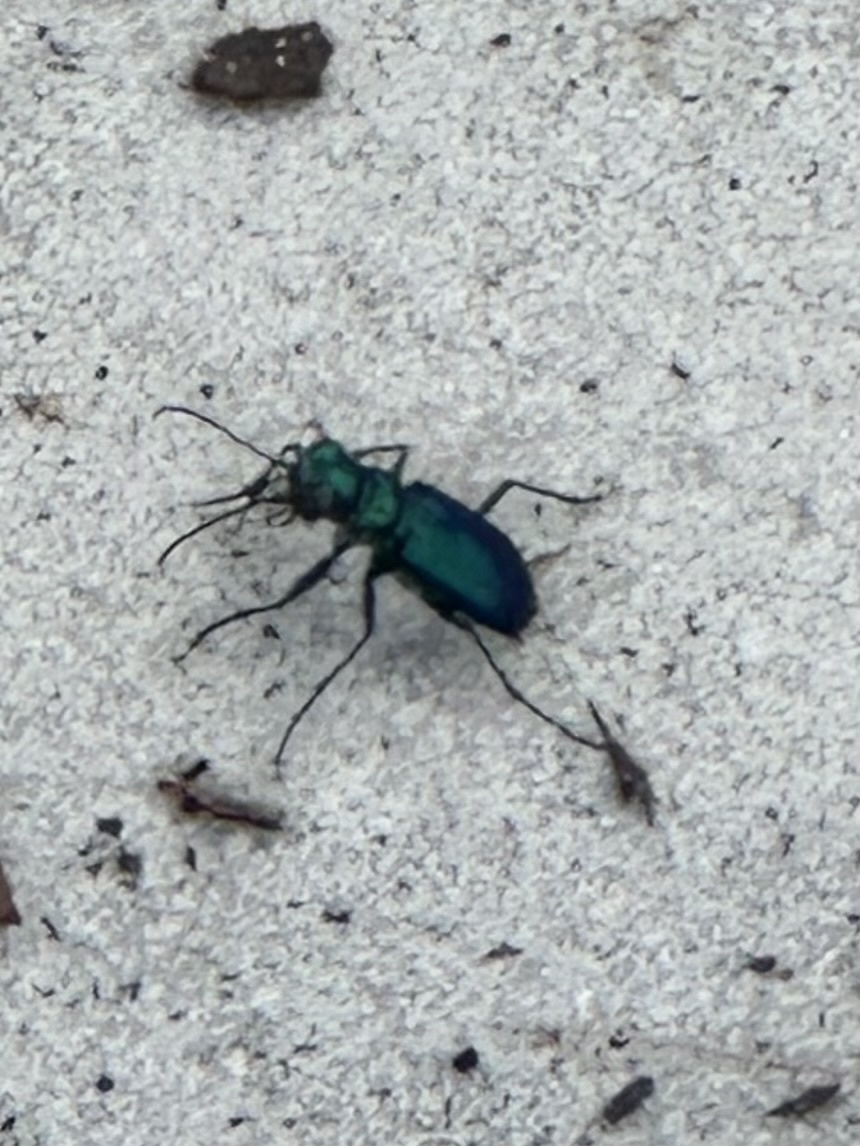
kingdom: Animalia
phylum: Arthropoda
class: Insecta
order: Coleoptera
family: Carabidae
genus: Cicindela
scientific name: Cicindela scutellaris
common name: Festive tiger beetle
